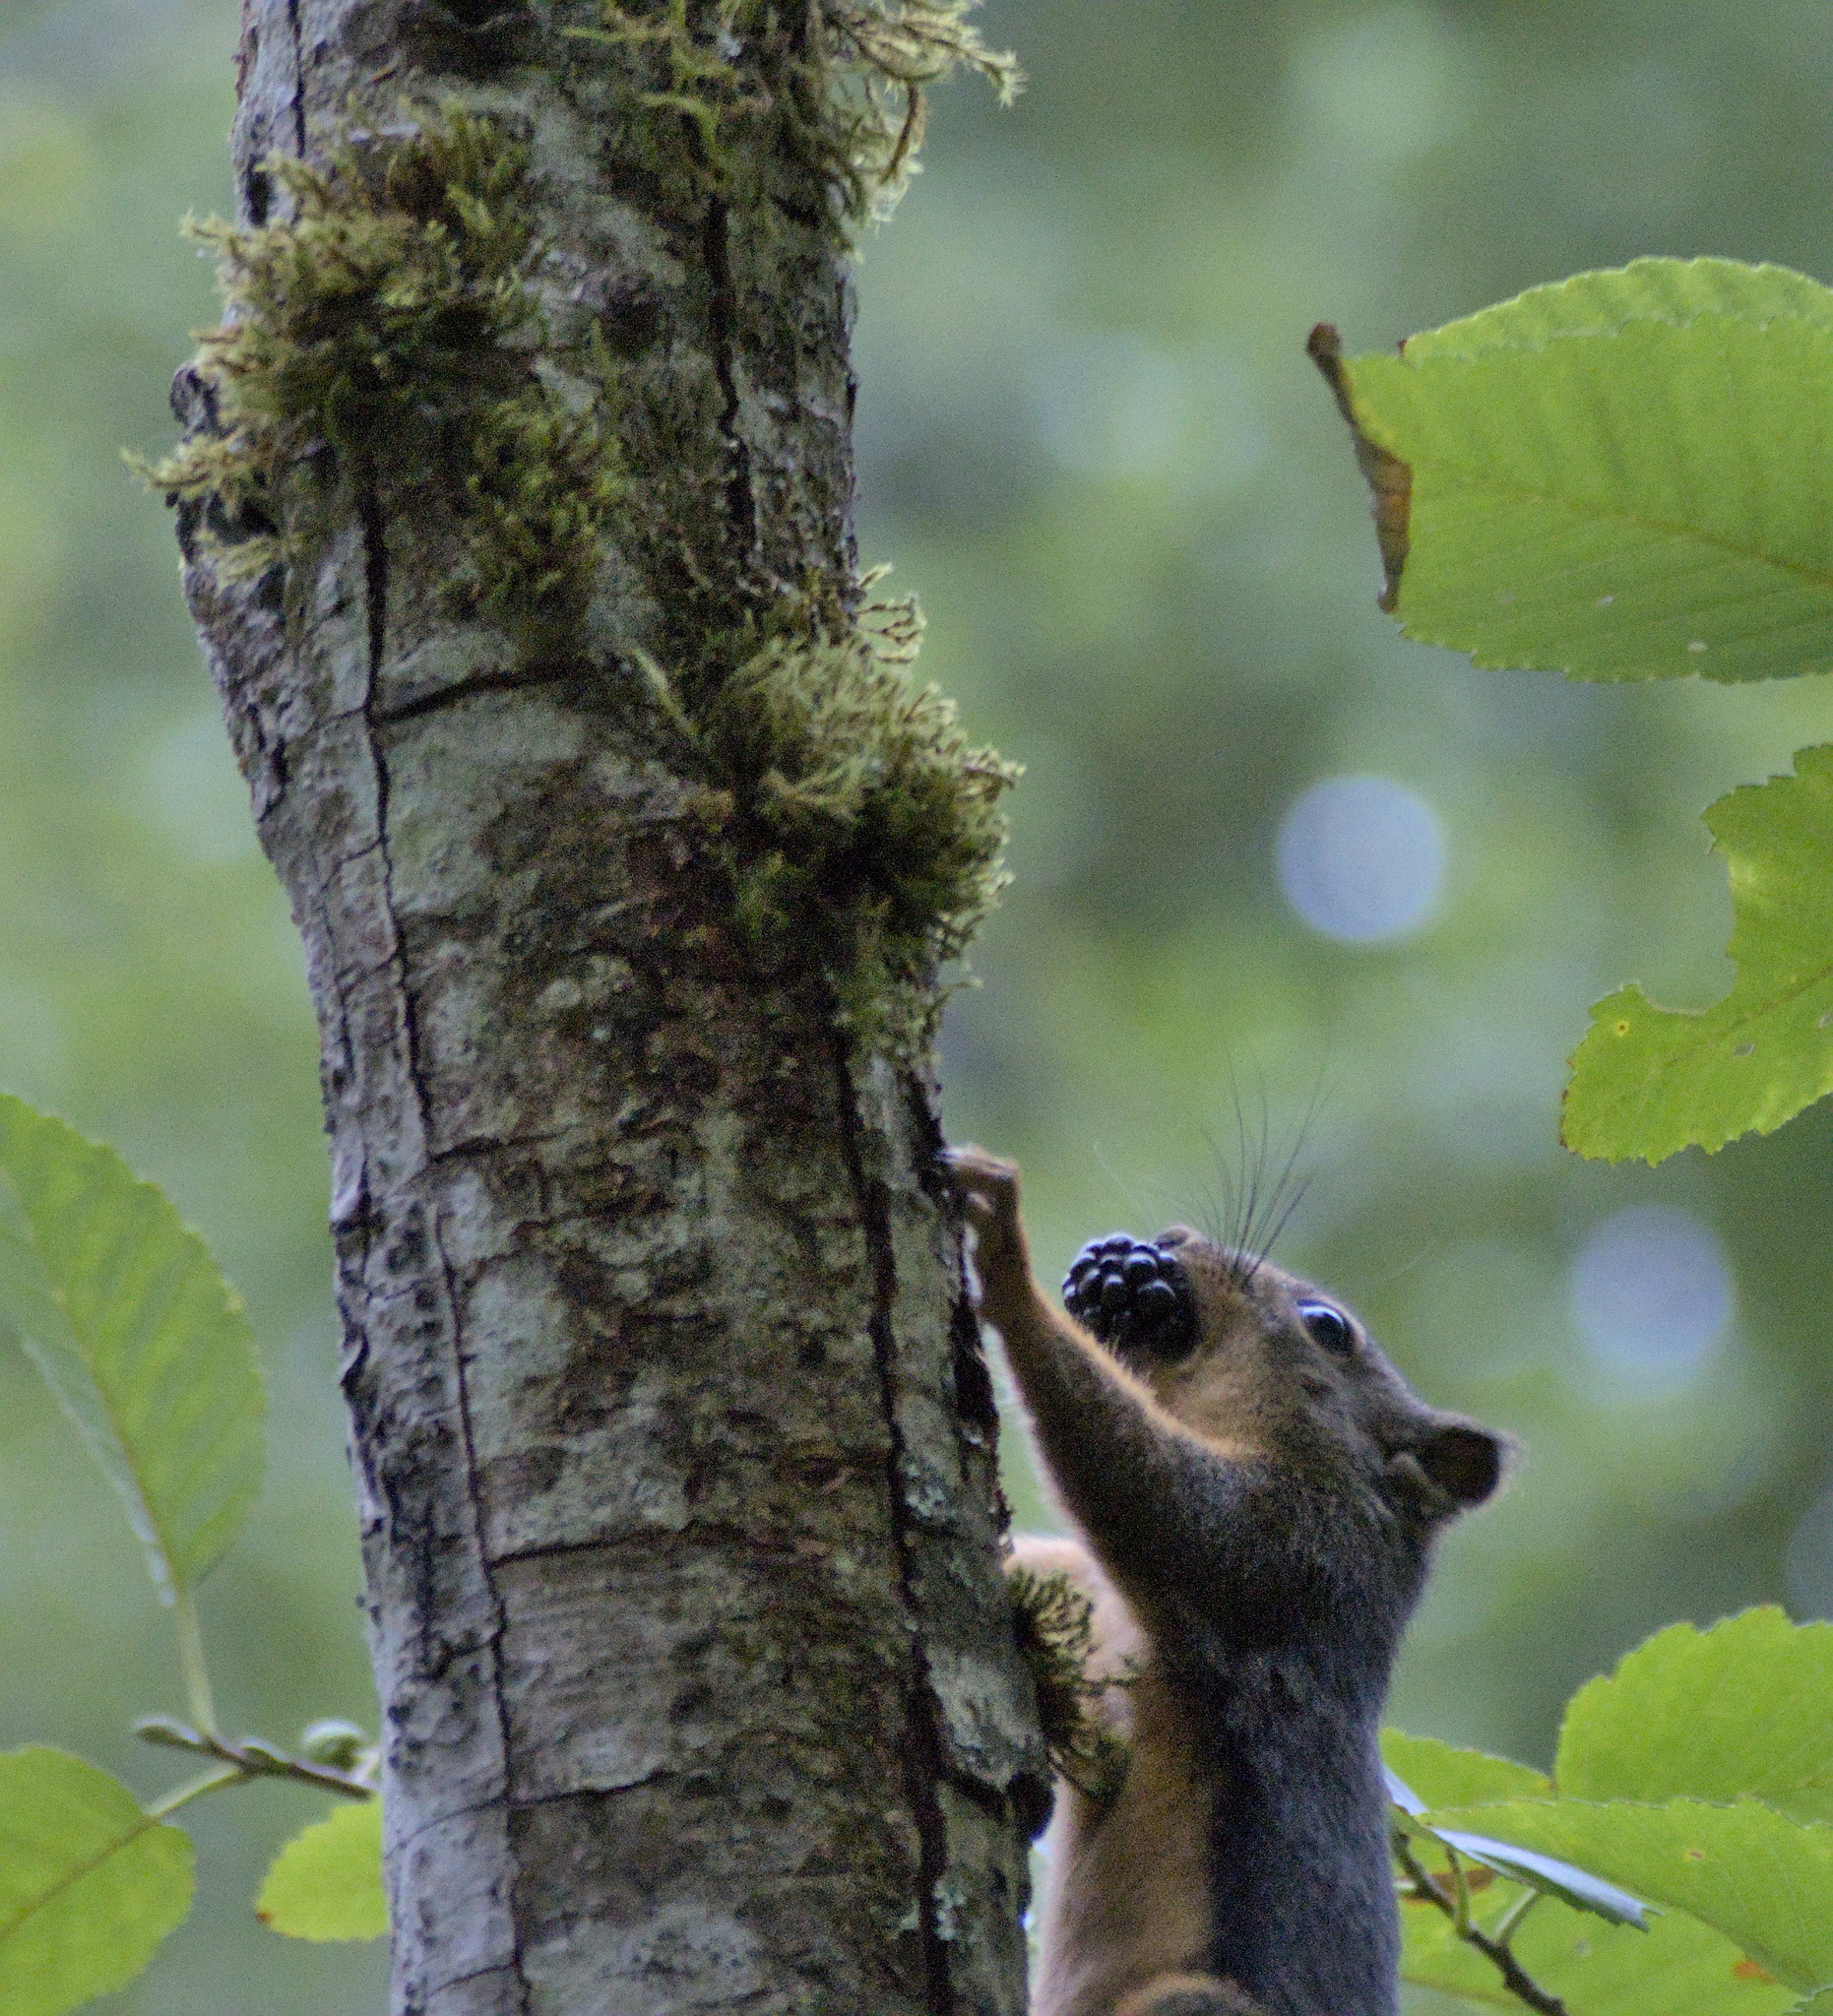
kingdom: Animalia
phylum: Chordata
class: Mammalia
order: Rodentia
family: Sciuridae
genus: Tamiasciurus
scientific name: Tamiasciurus douglasii
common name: Douglas's squirrel
